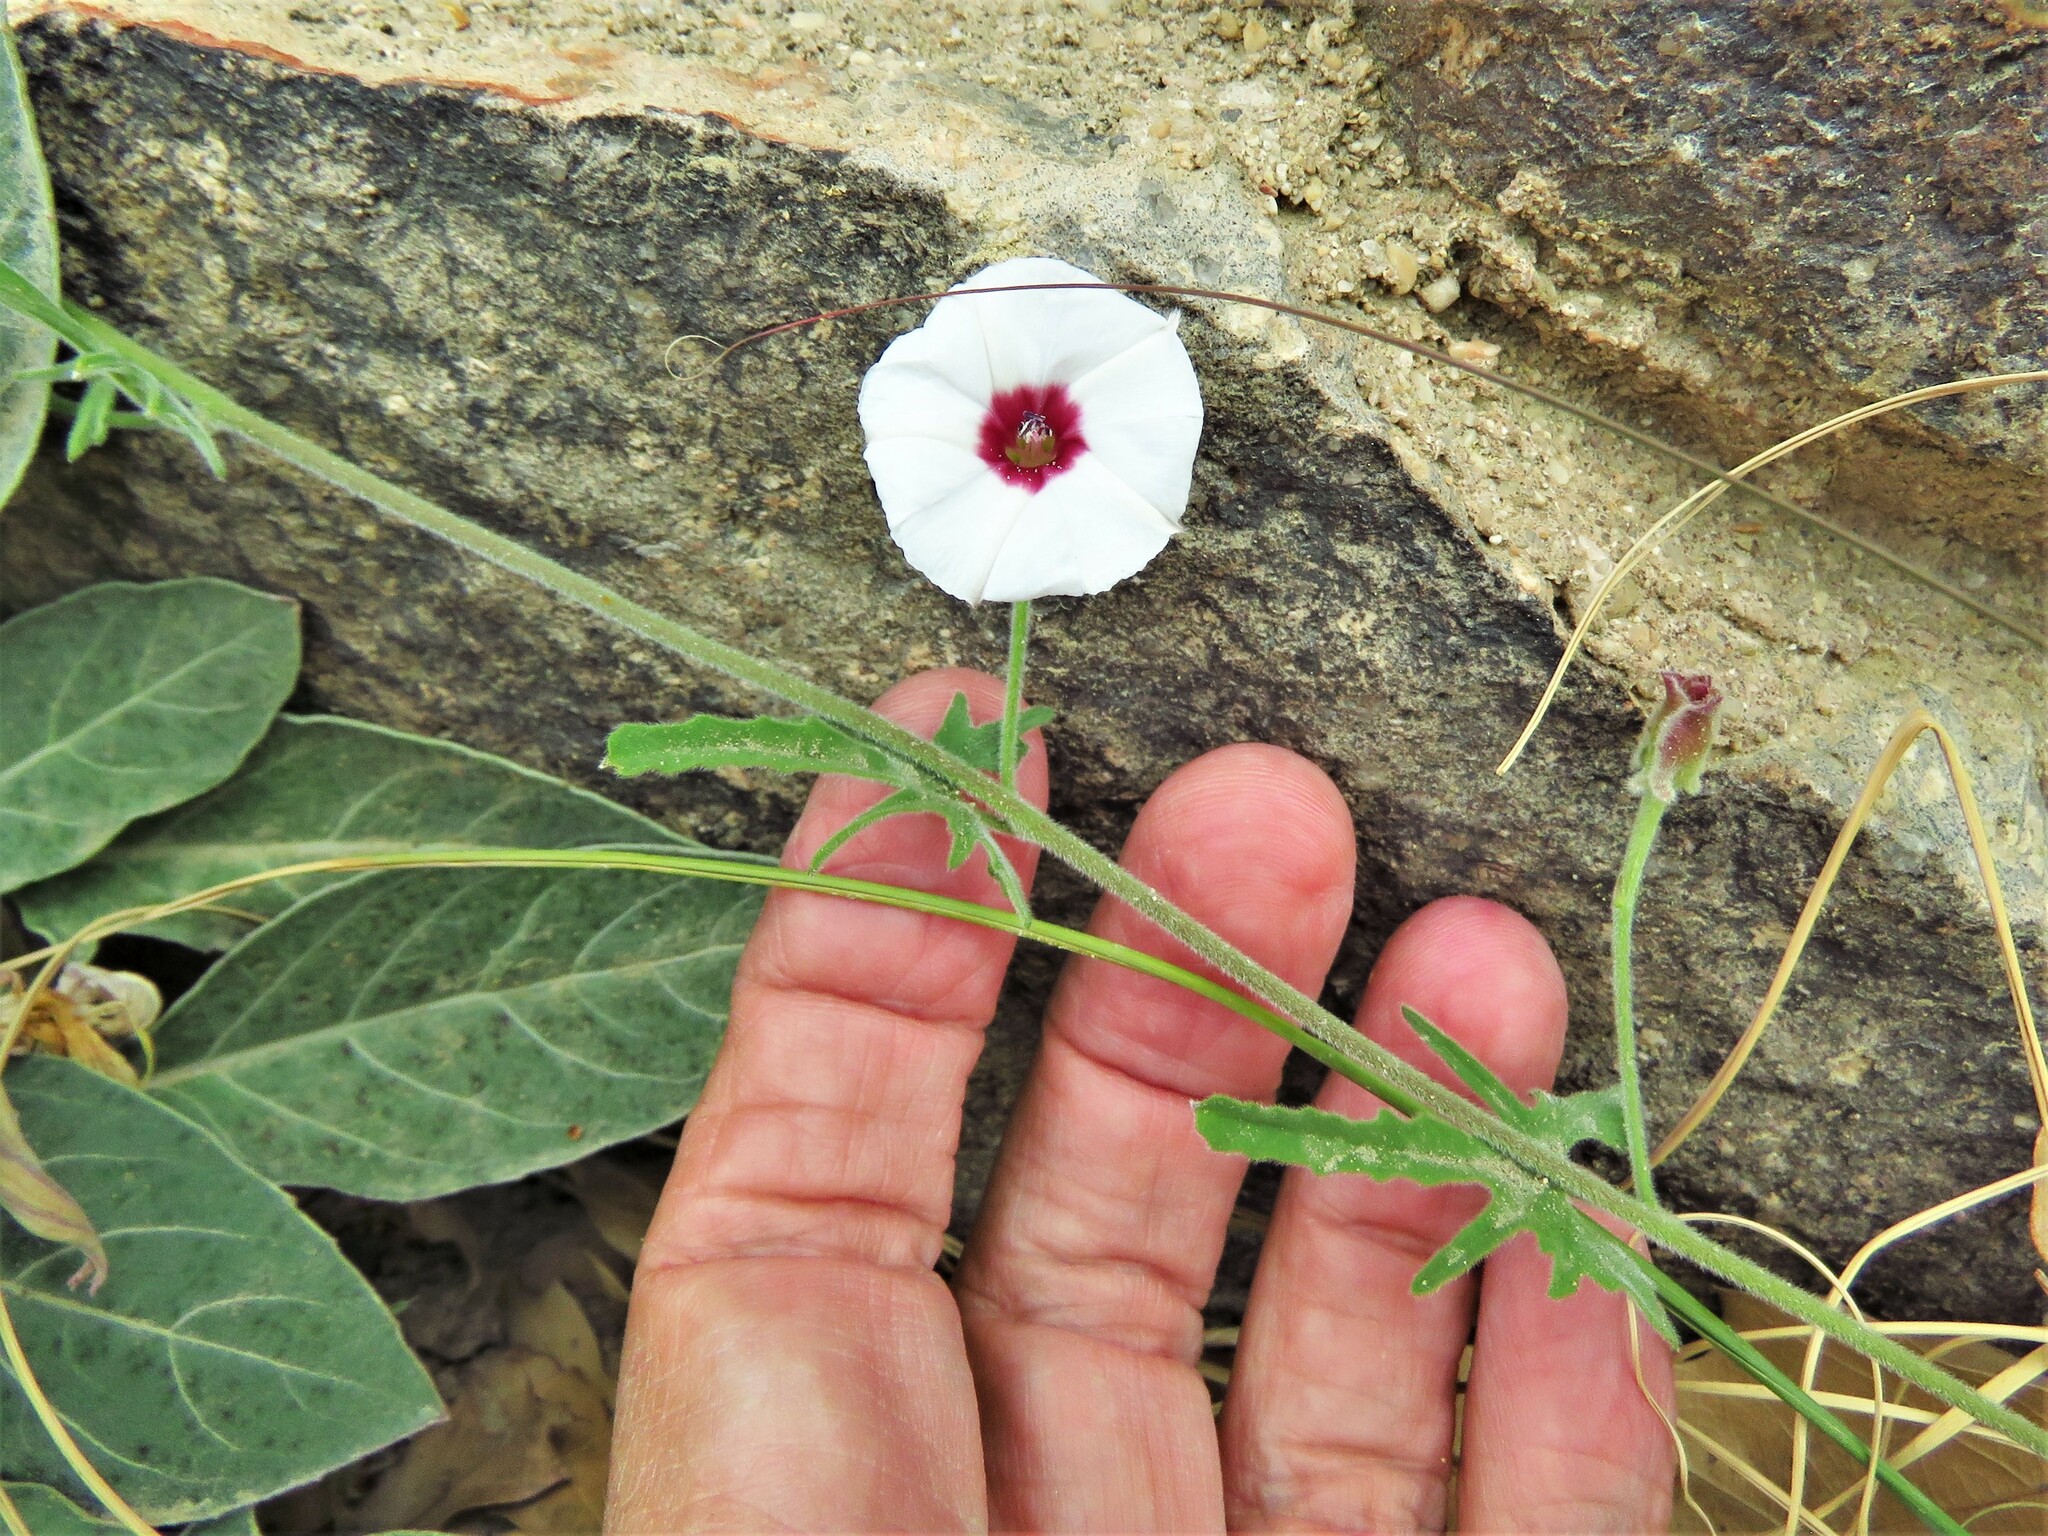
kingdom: Plantae
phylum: Tracheophyta
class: Magnoliopsida
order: Solanales
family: Convolvulaceae
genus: Convolvulus
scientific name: Convolvulus equitans
